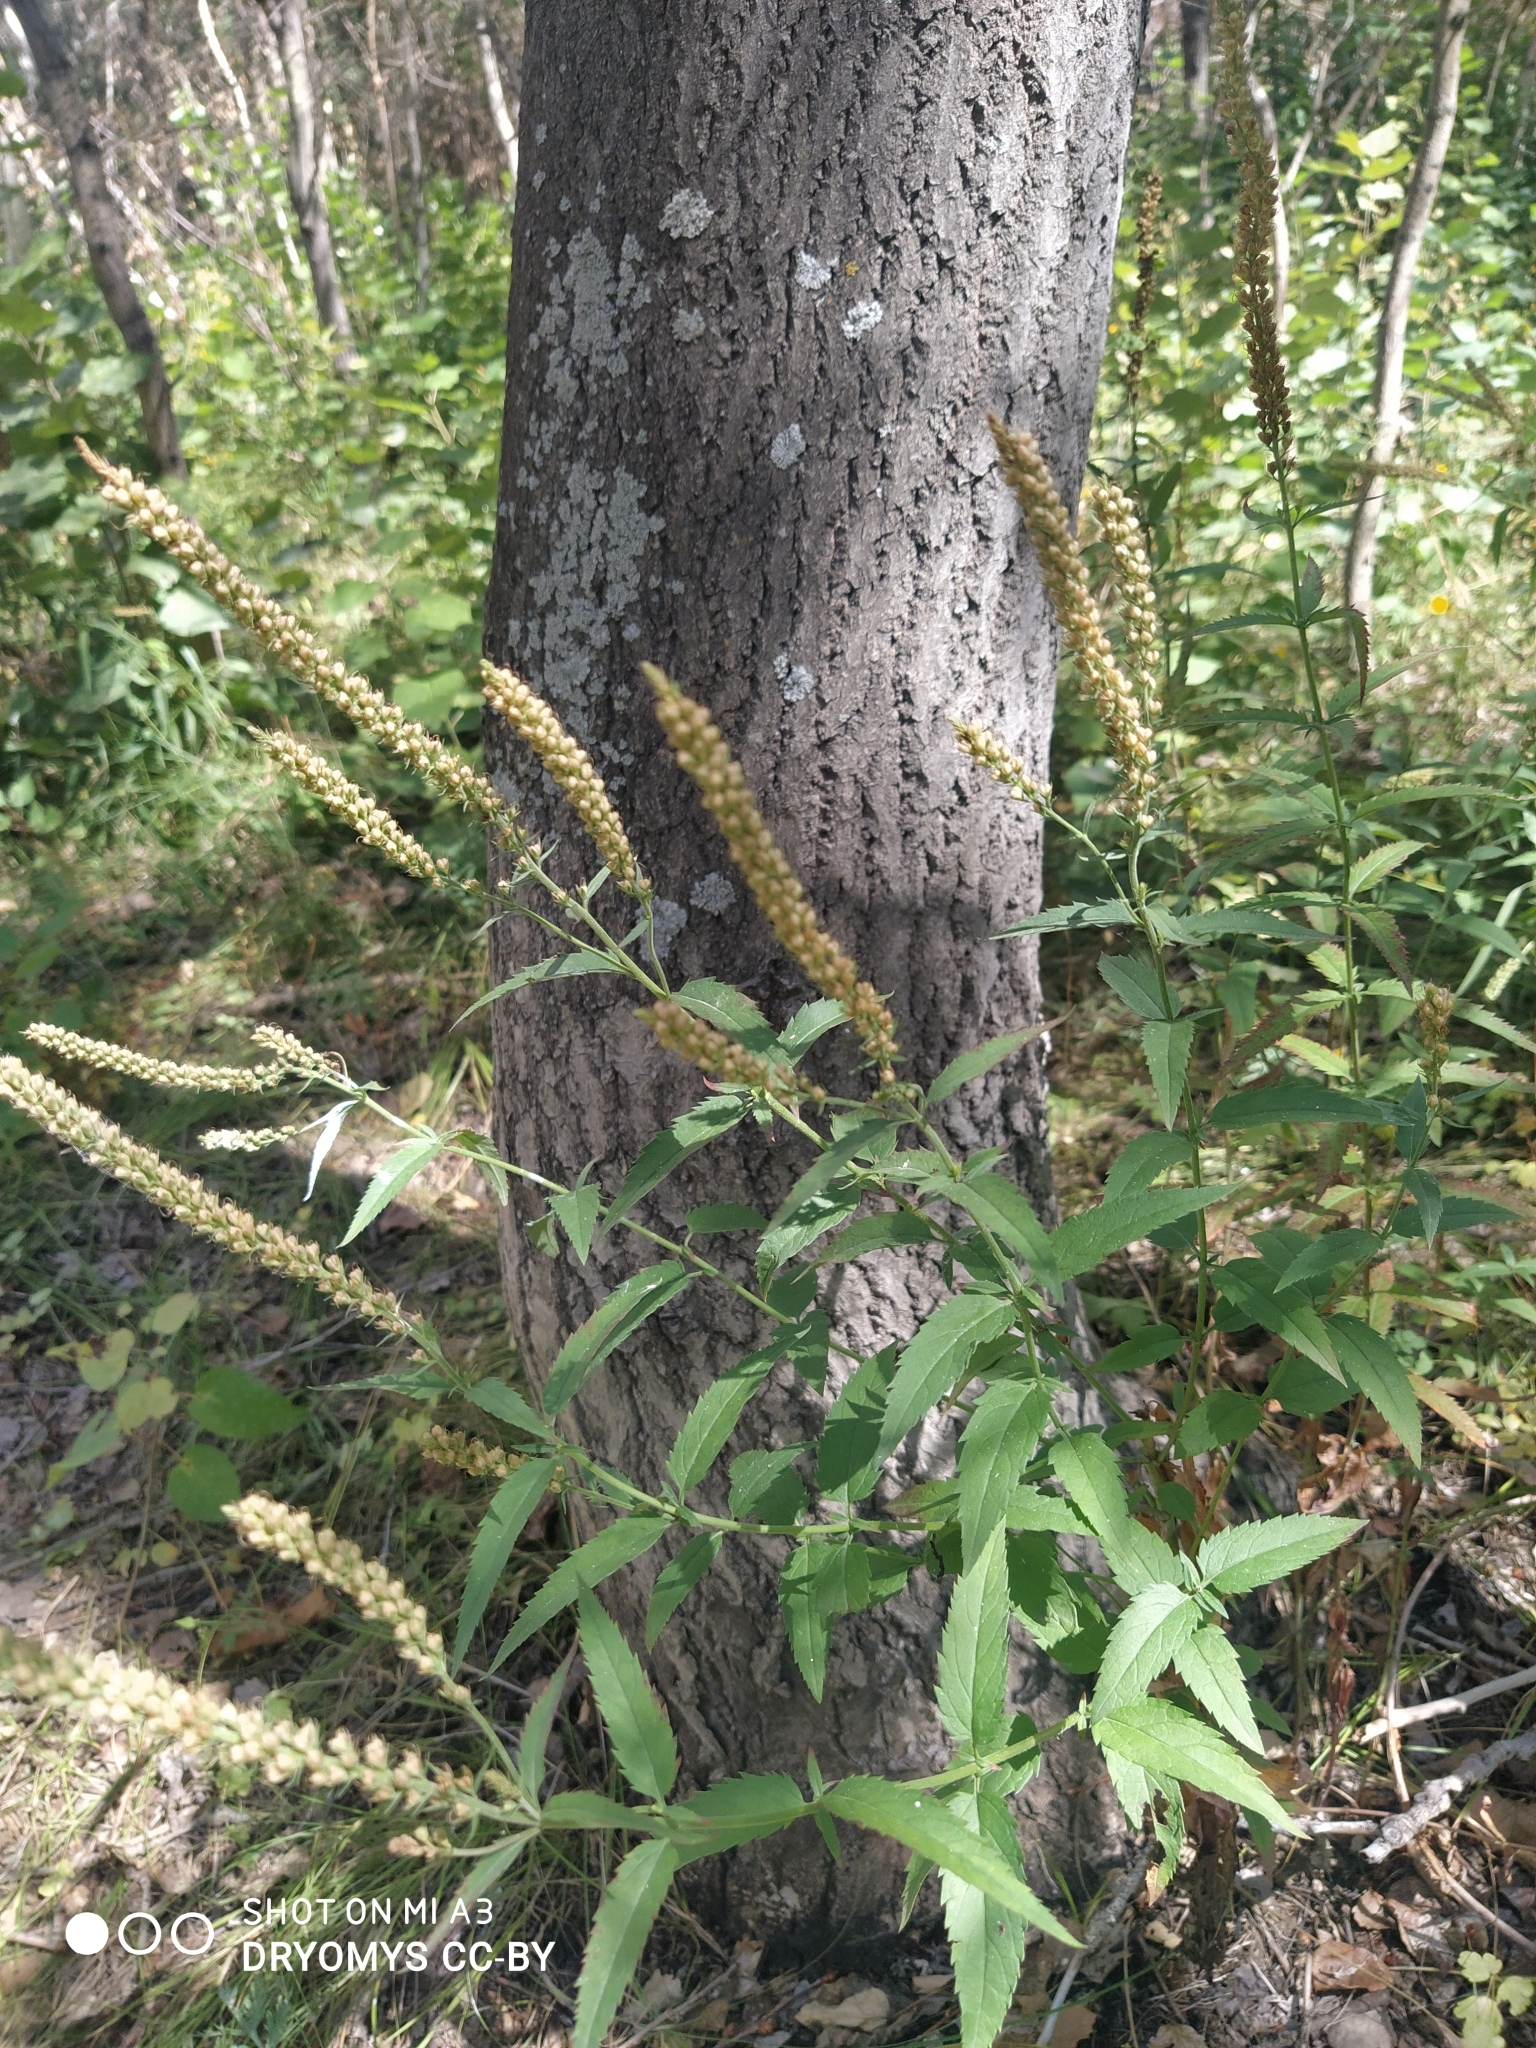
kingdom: Plantae
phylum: Tracheophyta
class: Magnoliopsida
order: Lamiales
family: Plantaginaceae
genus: Veronica
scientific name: Veronica longifolia
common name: Garden speedwell
